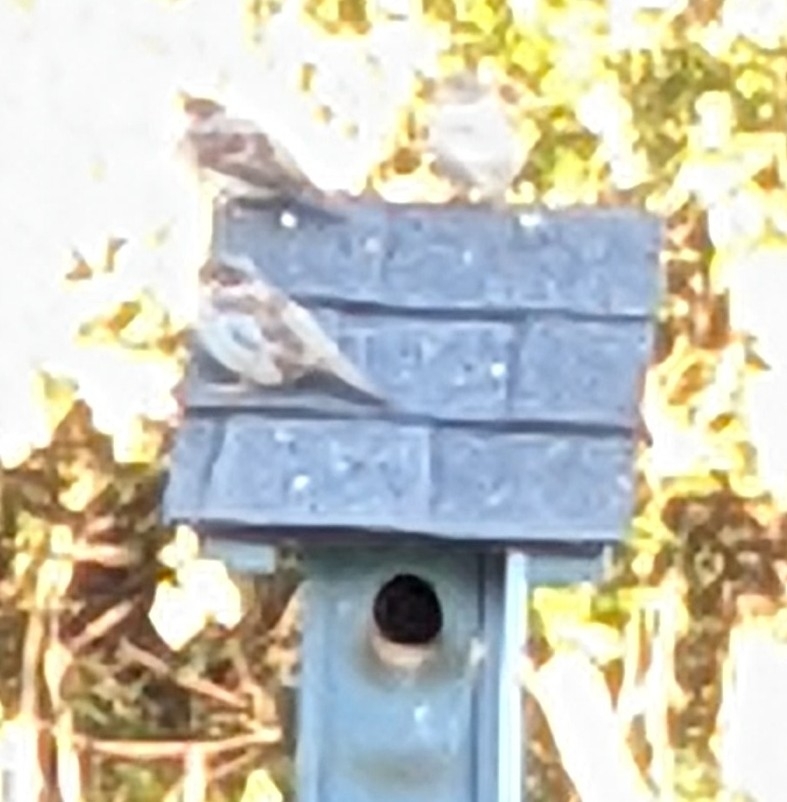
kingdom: Animalia
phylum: Chordata
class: Aves
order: Passeriformes
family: Passeridae
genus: Passer
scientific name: Passer domesticus
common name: House sparrow
